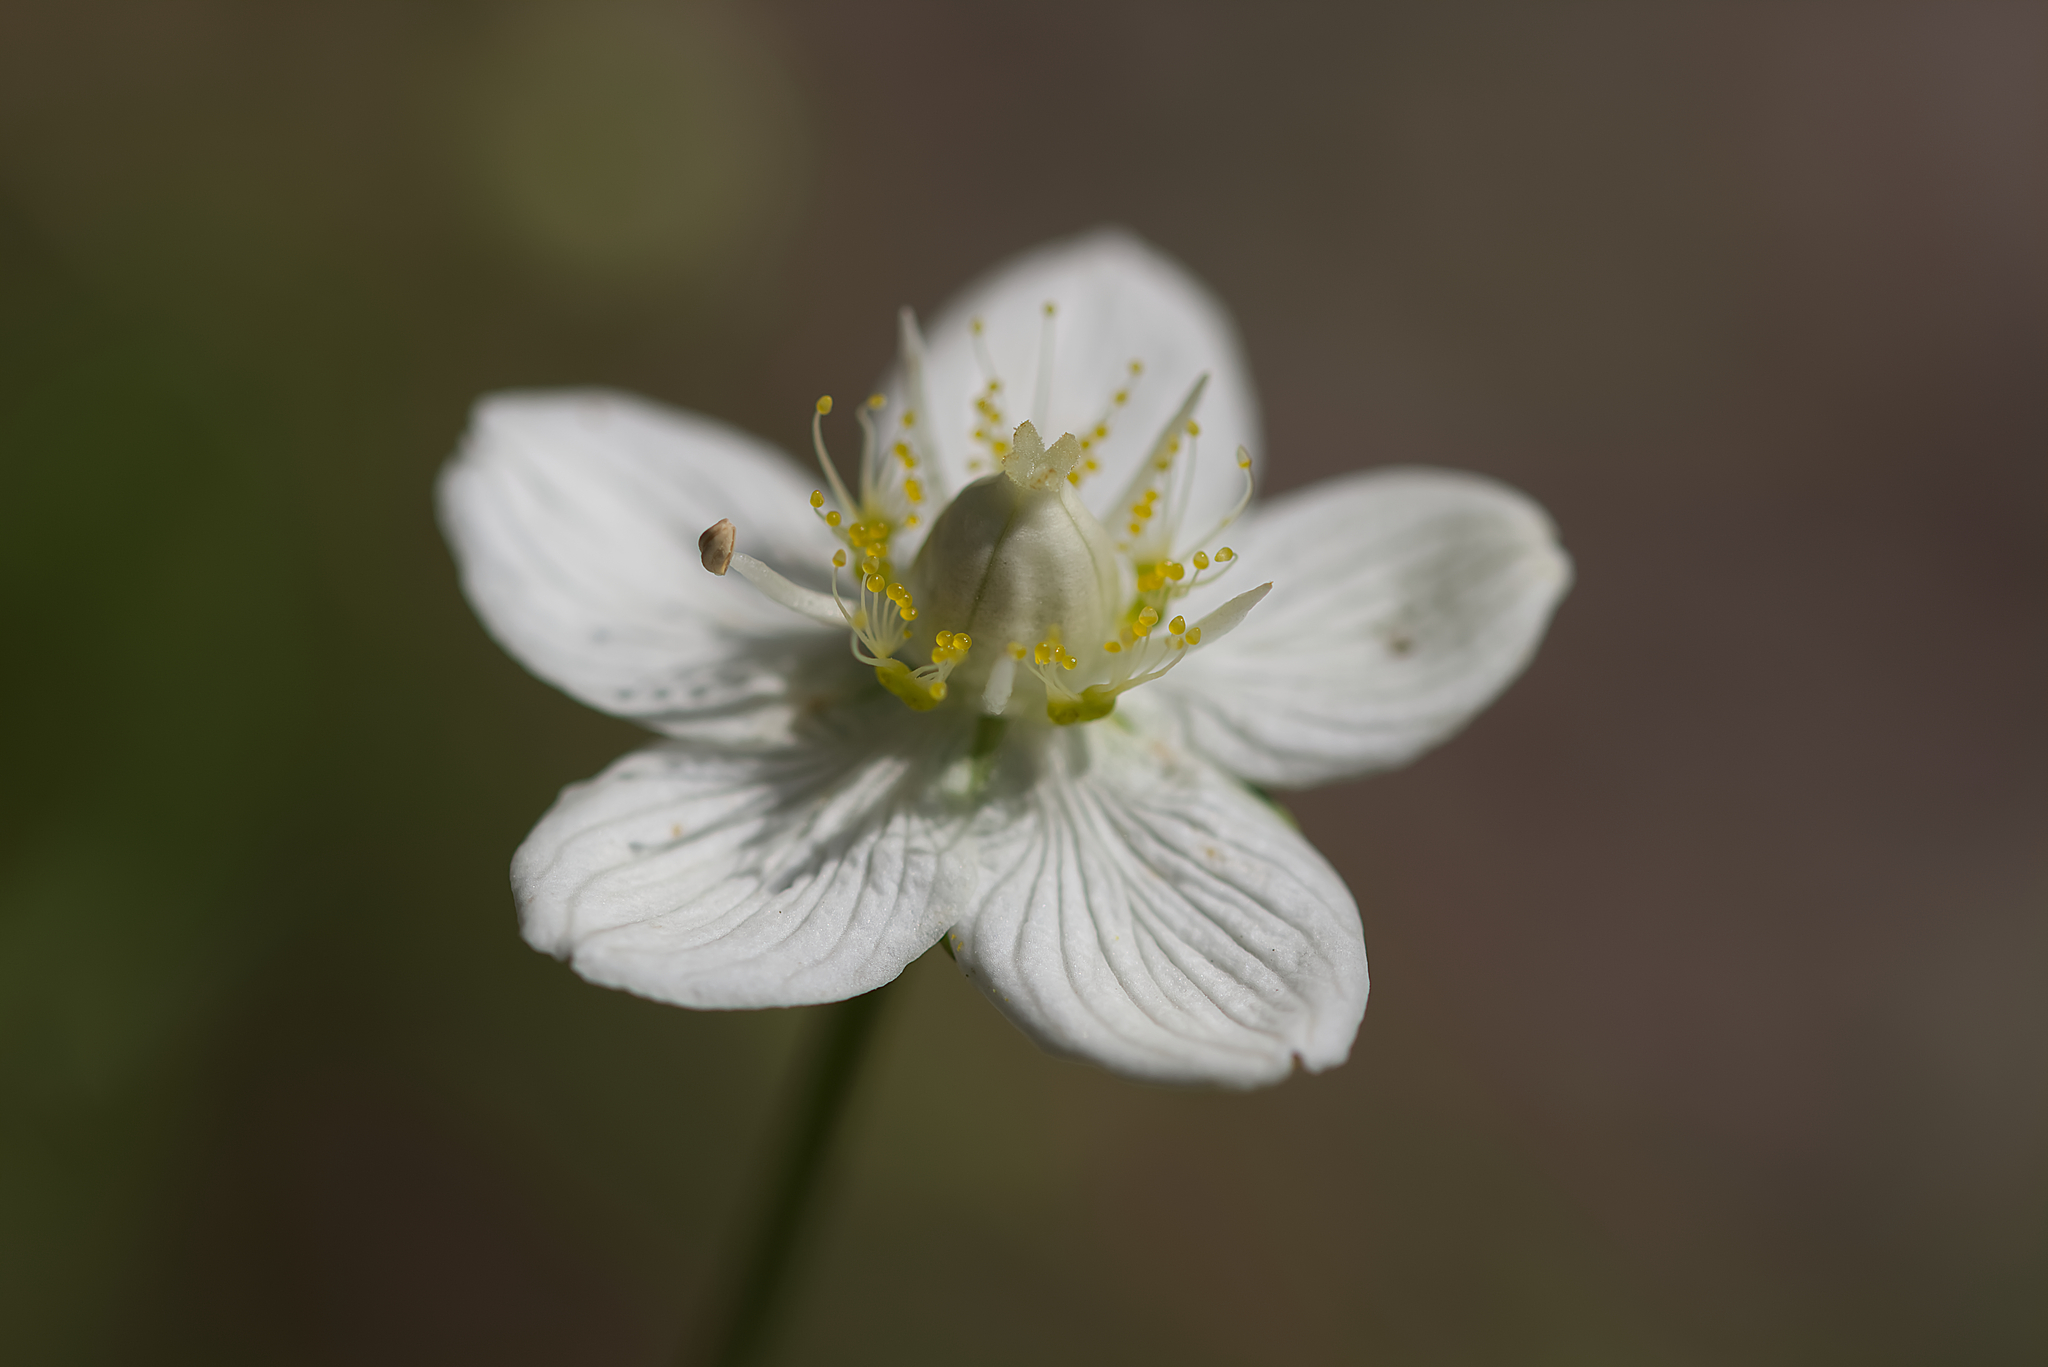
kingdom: Plantae
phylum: Tracheophyta
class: Magnoliopsida
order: Celastrales
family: Parnassiaceae
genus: Parnassia
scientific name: Parnassia palustris
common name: Grass-of-parnassus
